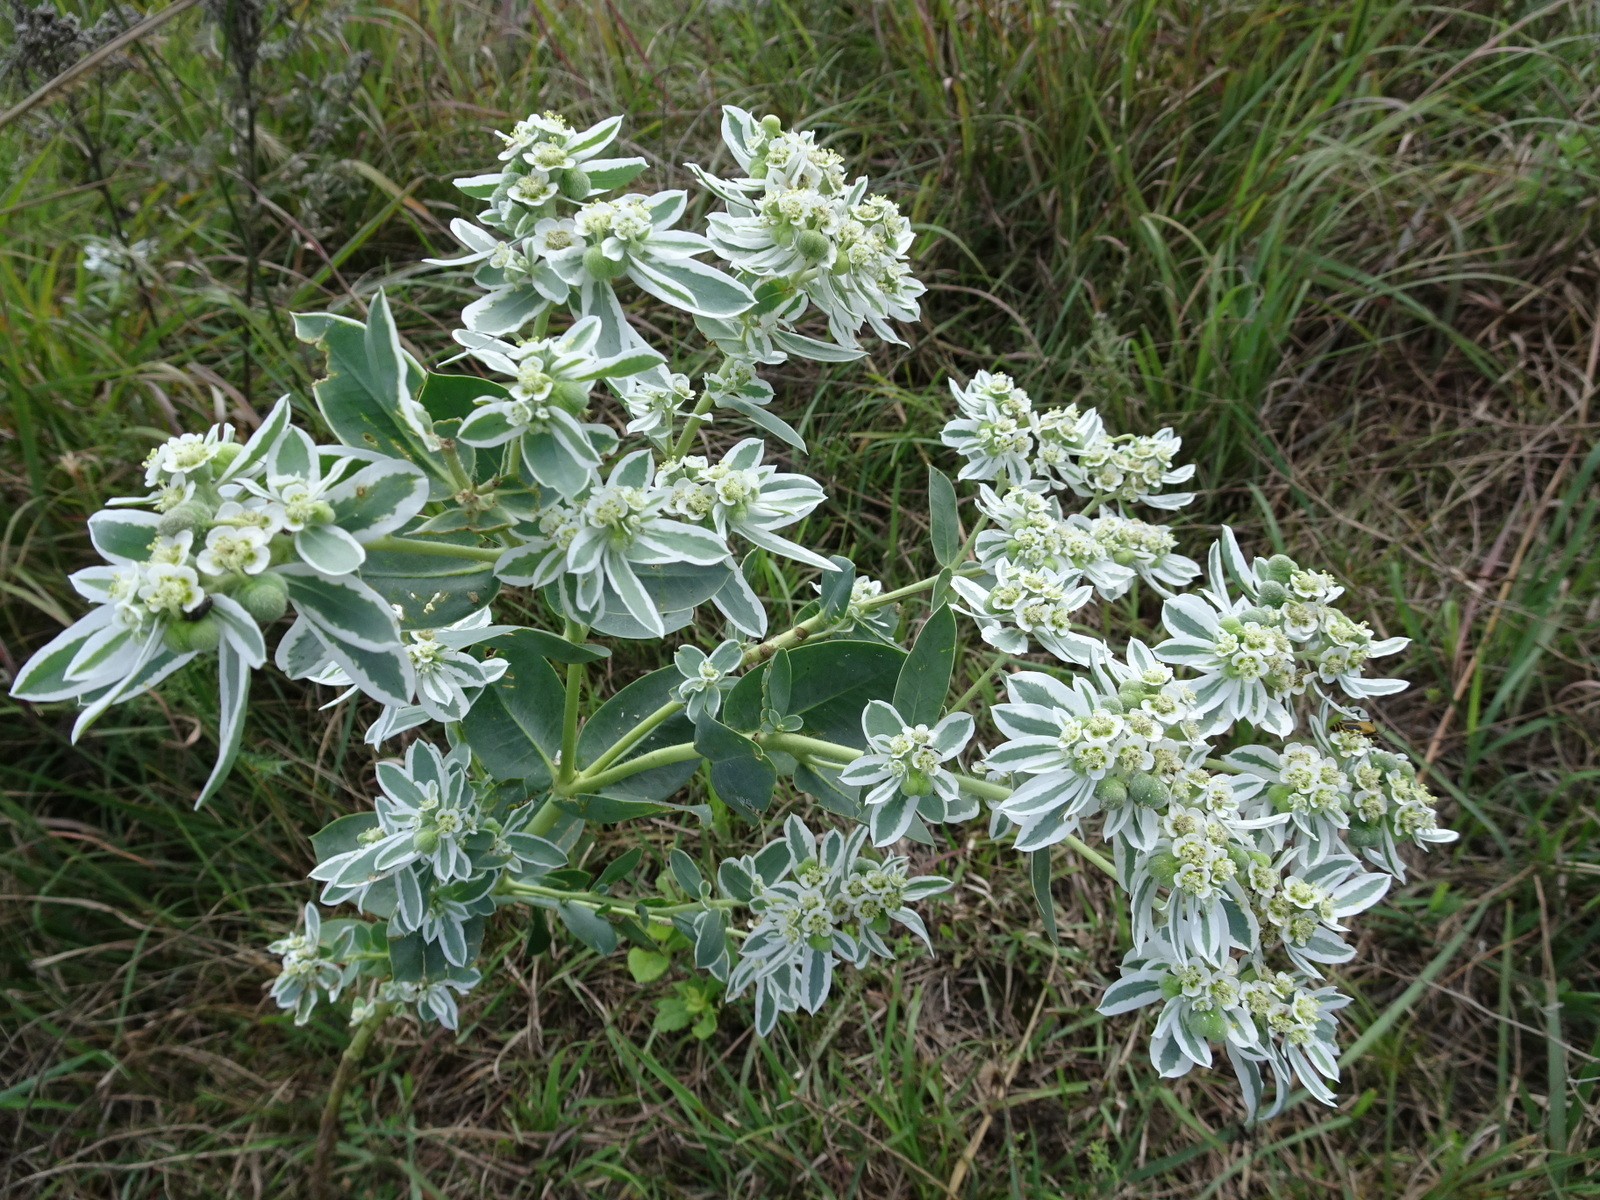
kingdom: Plantae
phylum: Tracheophyta
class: Magnoliopsida
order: Malpighiales
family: Euphorbiaceae
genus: Euphorbia
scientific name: Euphorbia marginata
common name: Ghostweed
